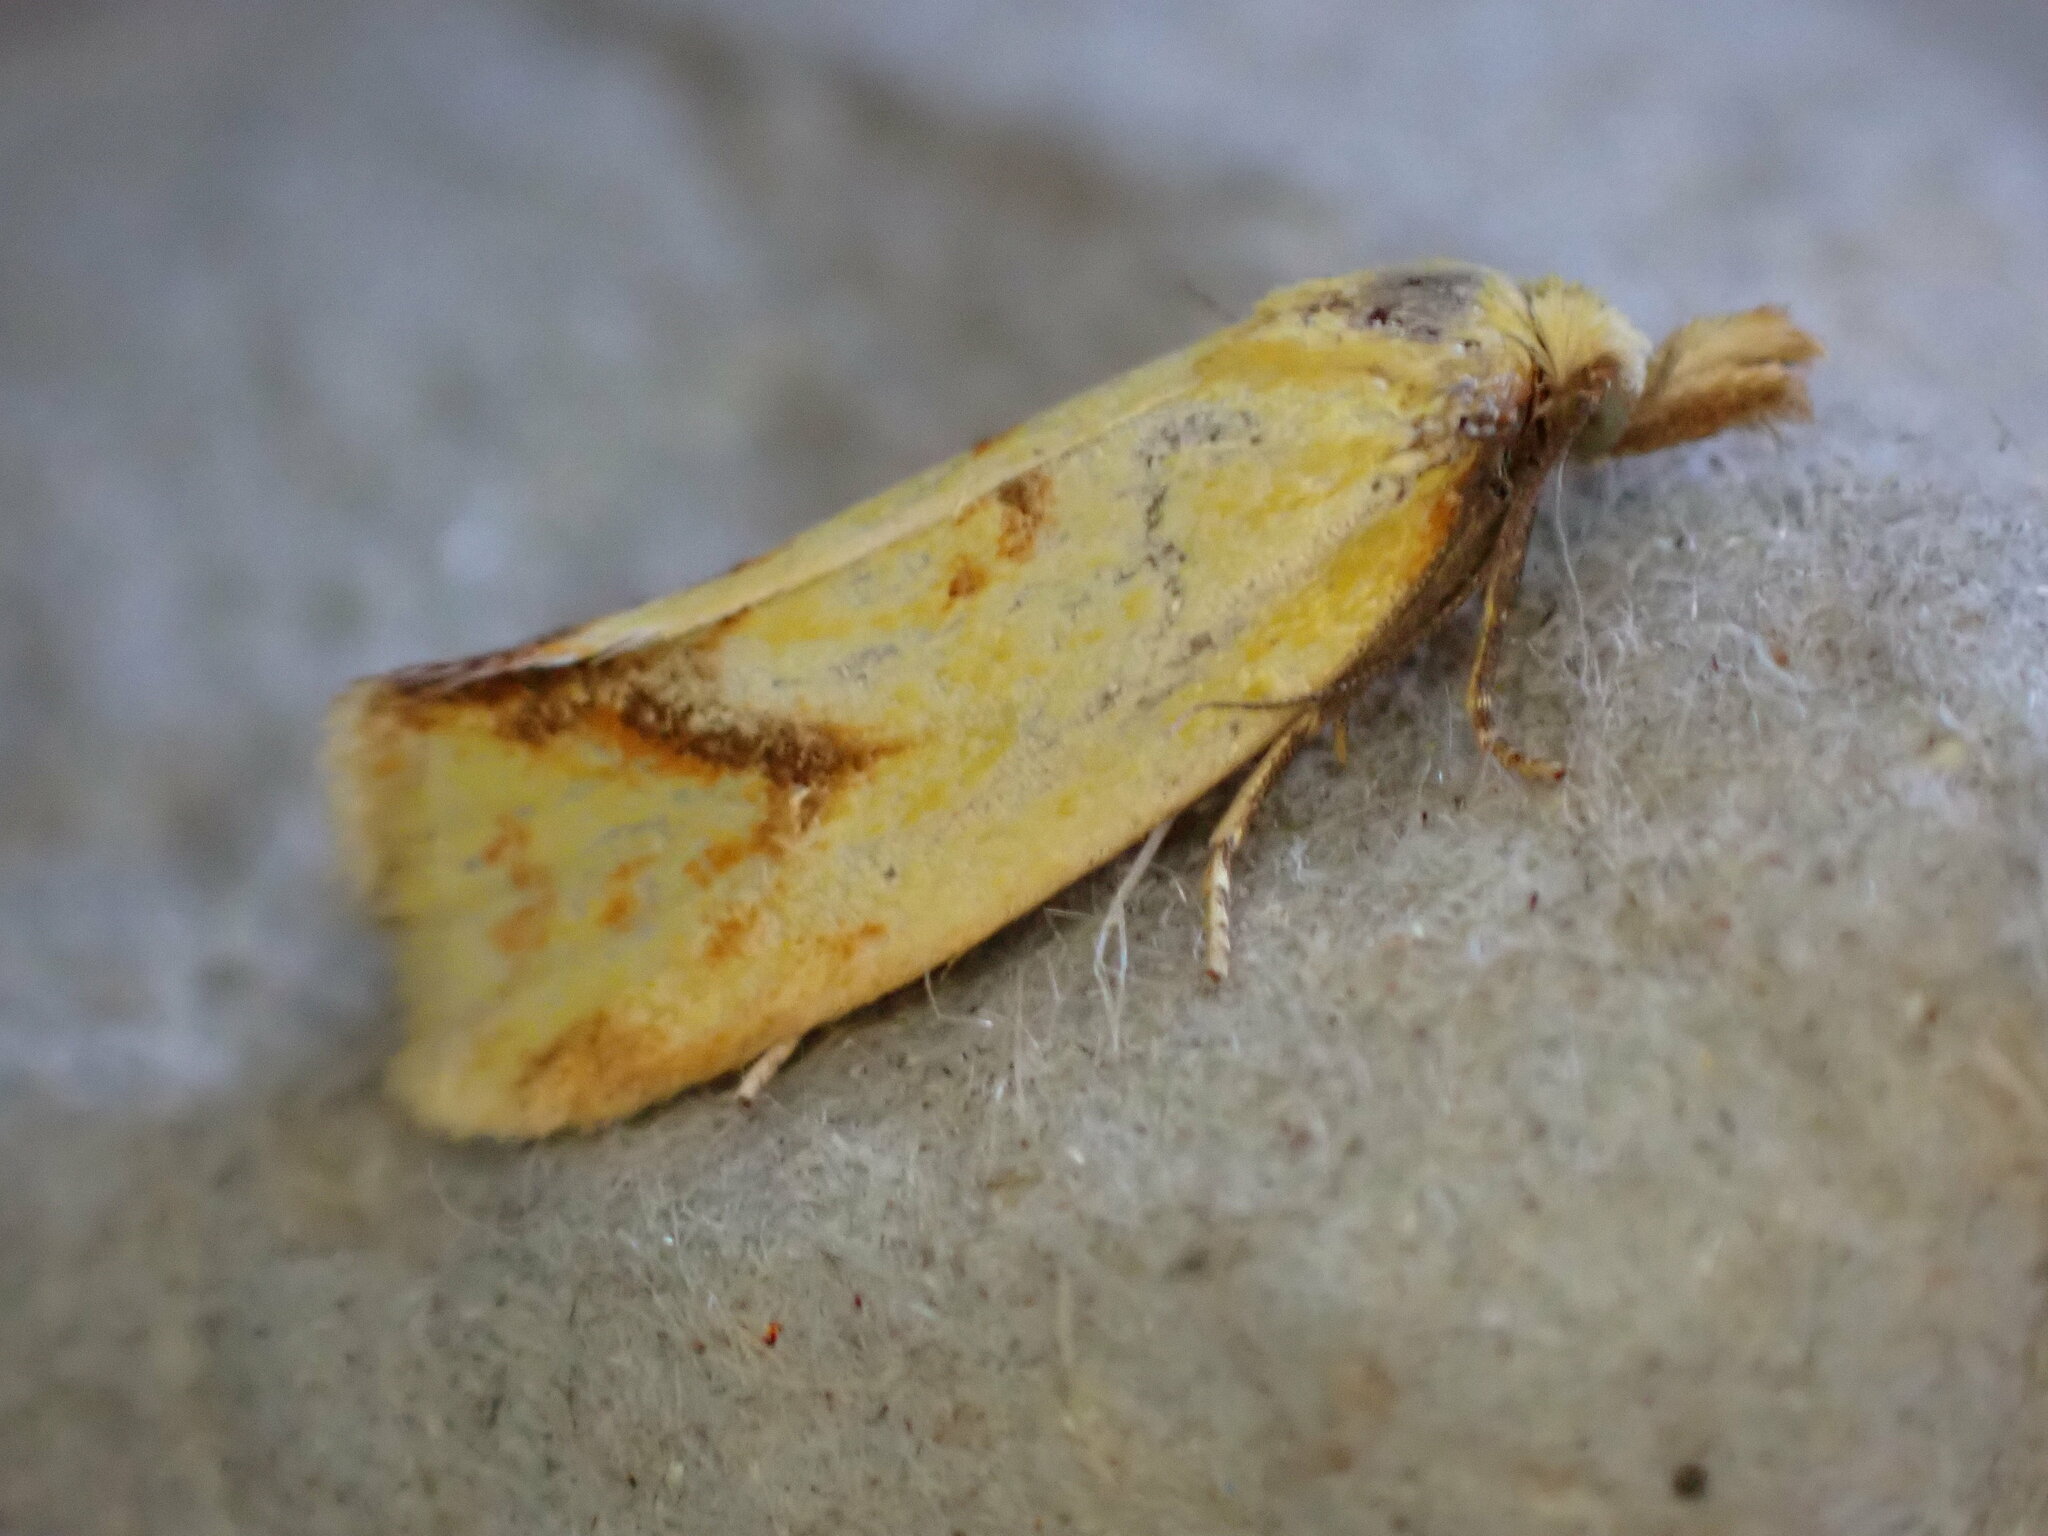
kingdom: Animalia
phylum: Arthropoda
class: Insecta
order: Lepidoptera
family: Tortricidae
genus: Agapeta
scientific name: Agapeta hamana
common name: Common yellow conch
